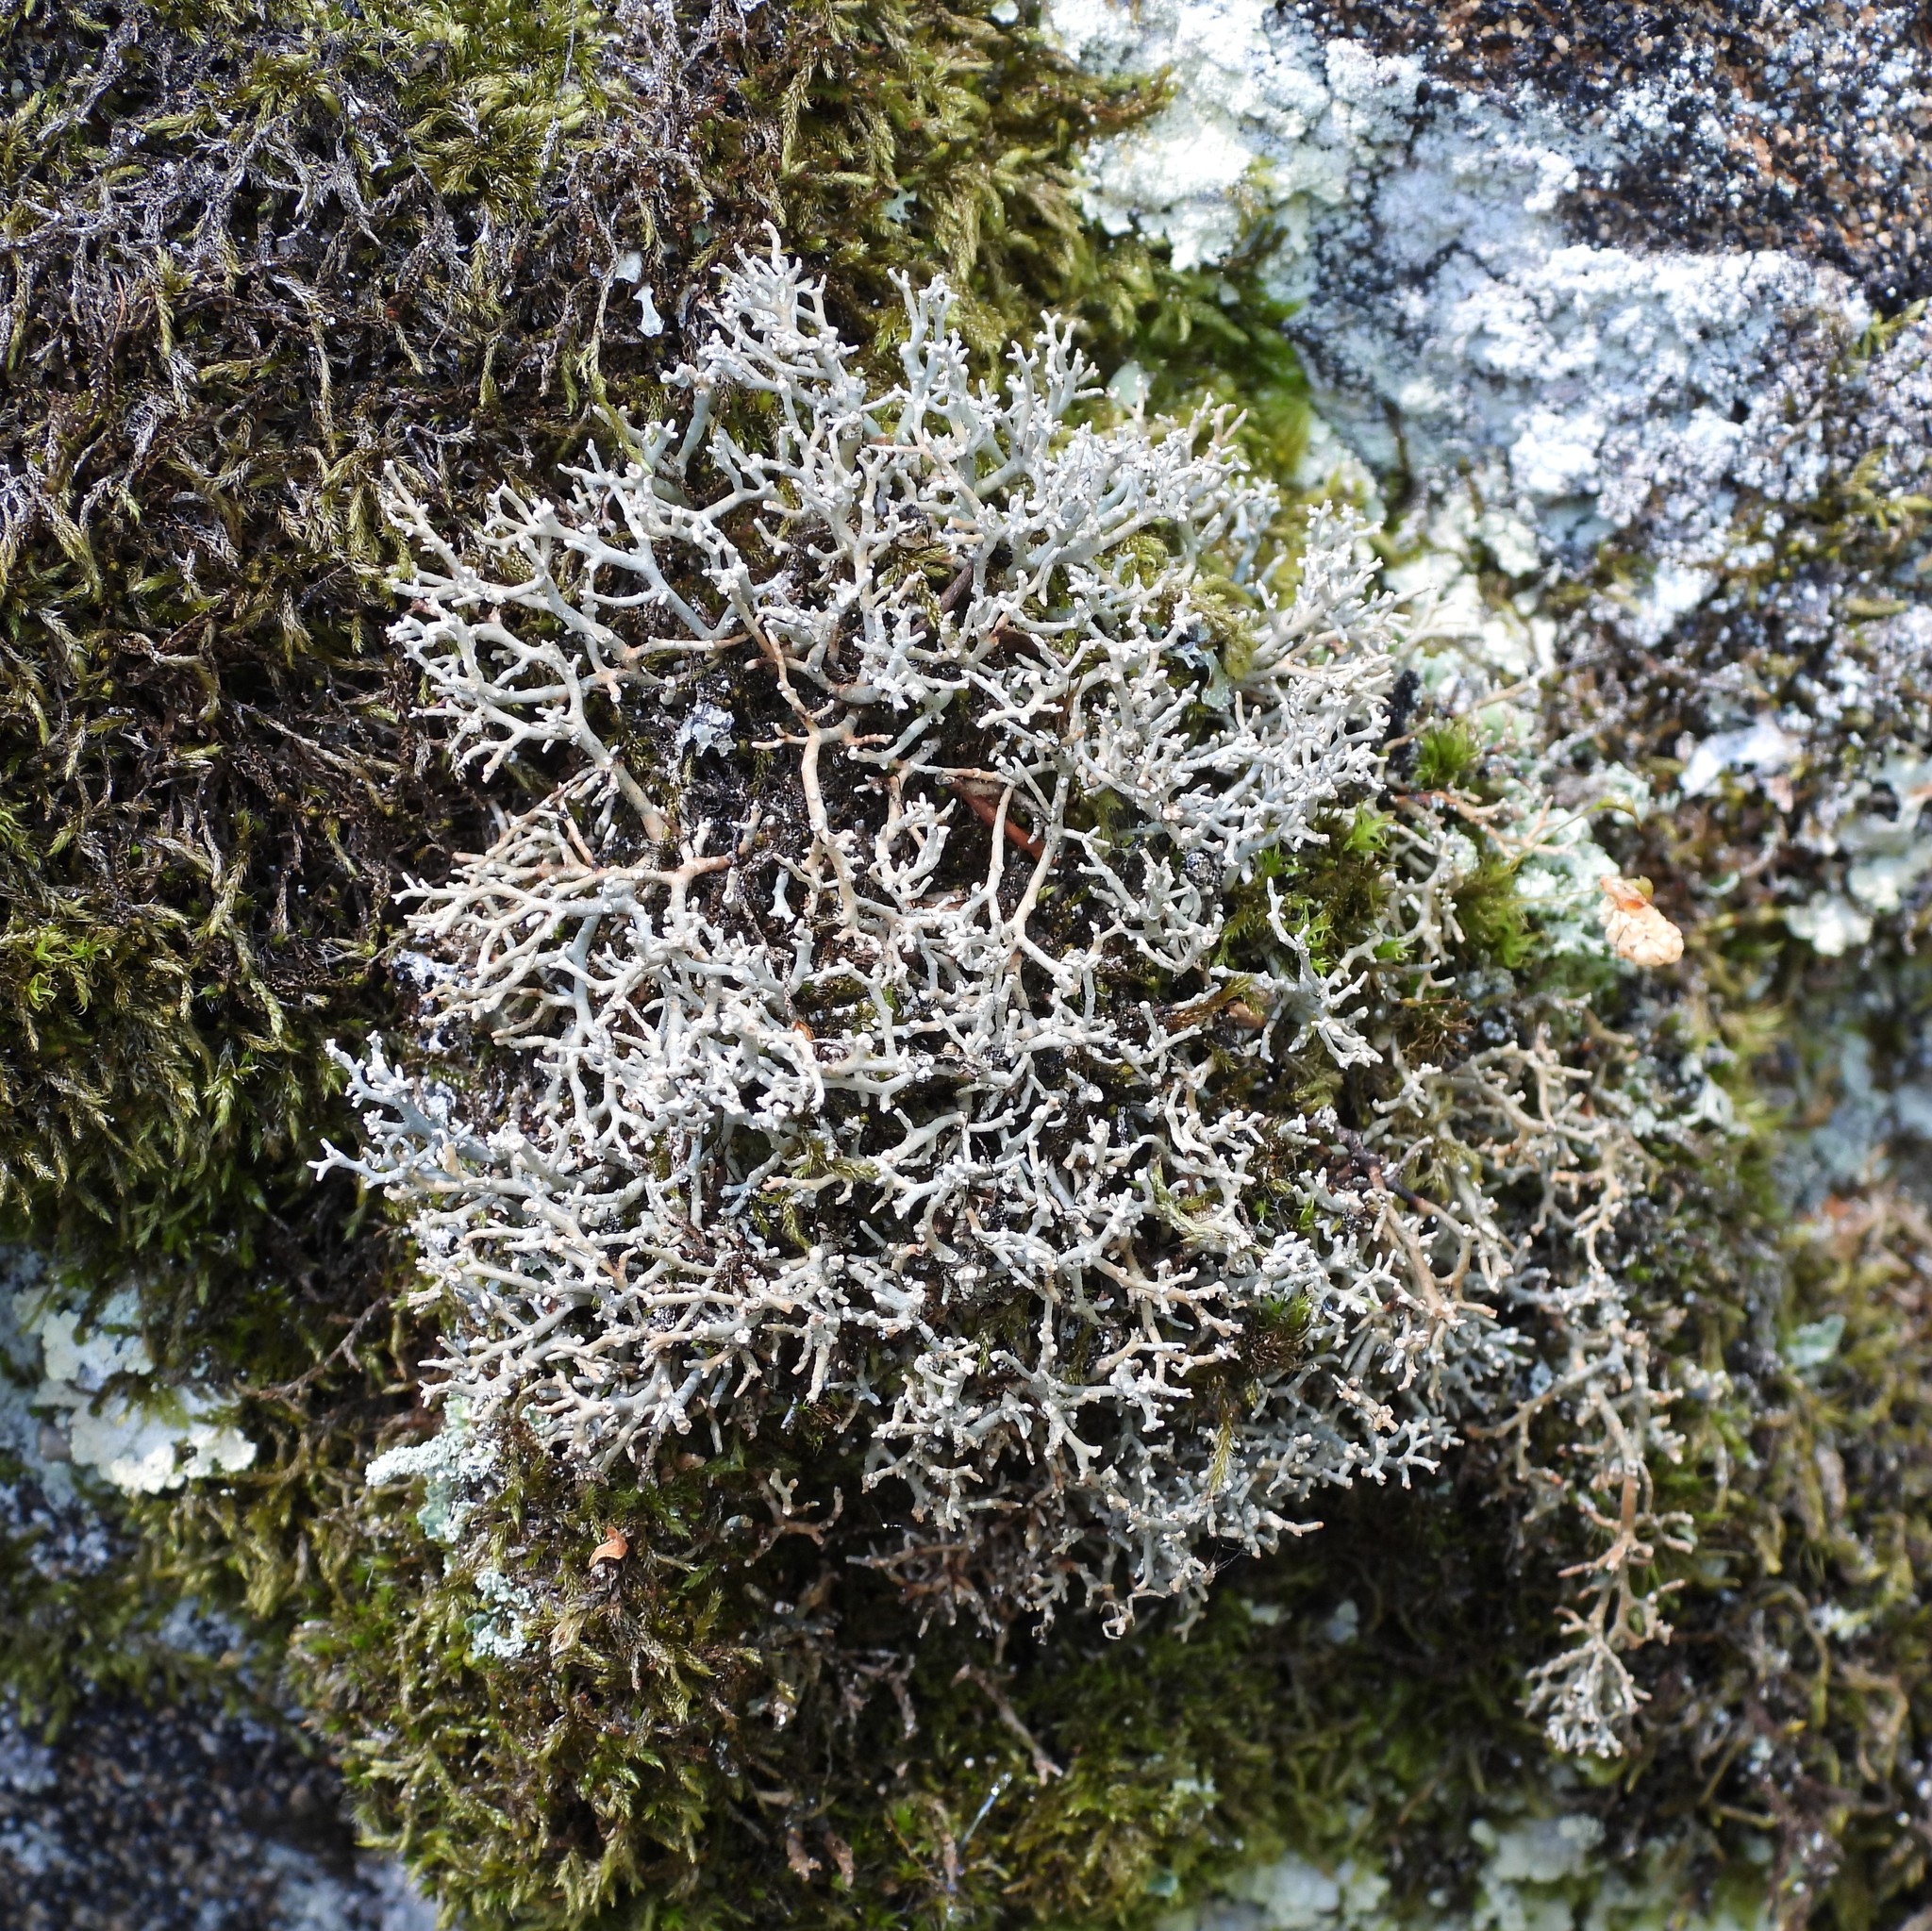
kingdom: Fungi
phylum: Ascomycota
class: Lecanoromycetes
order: Lecanorales
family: Sphaerophoraceae
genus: Sphaerophorus
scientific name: Sphaerophorus fragilis
